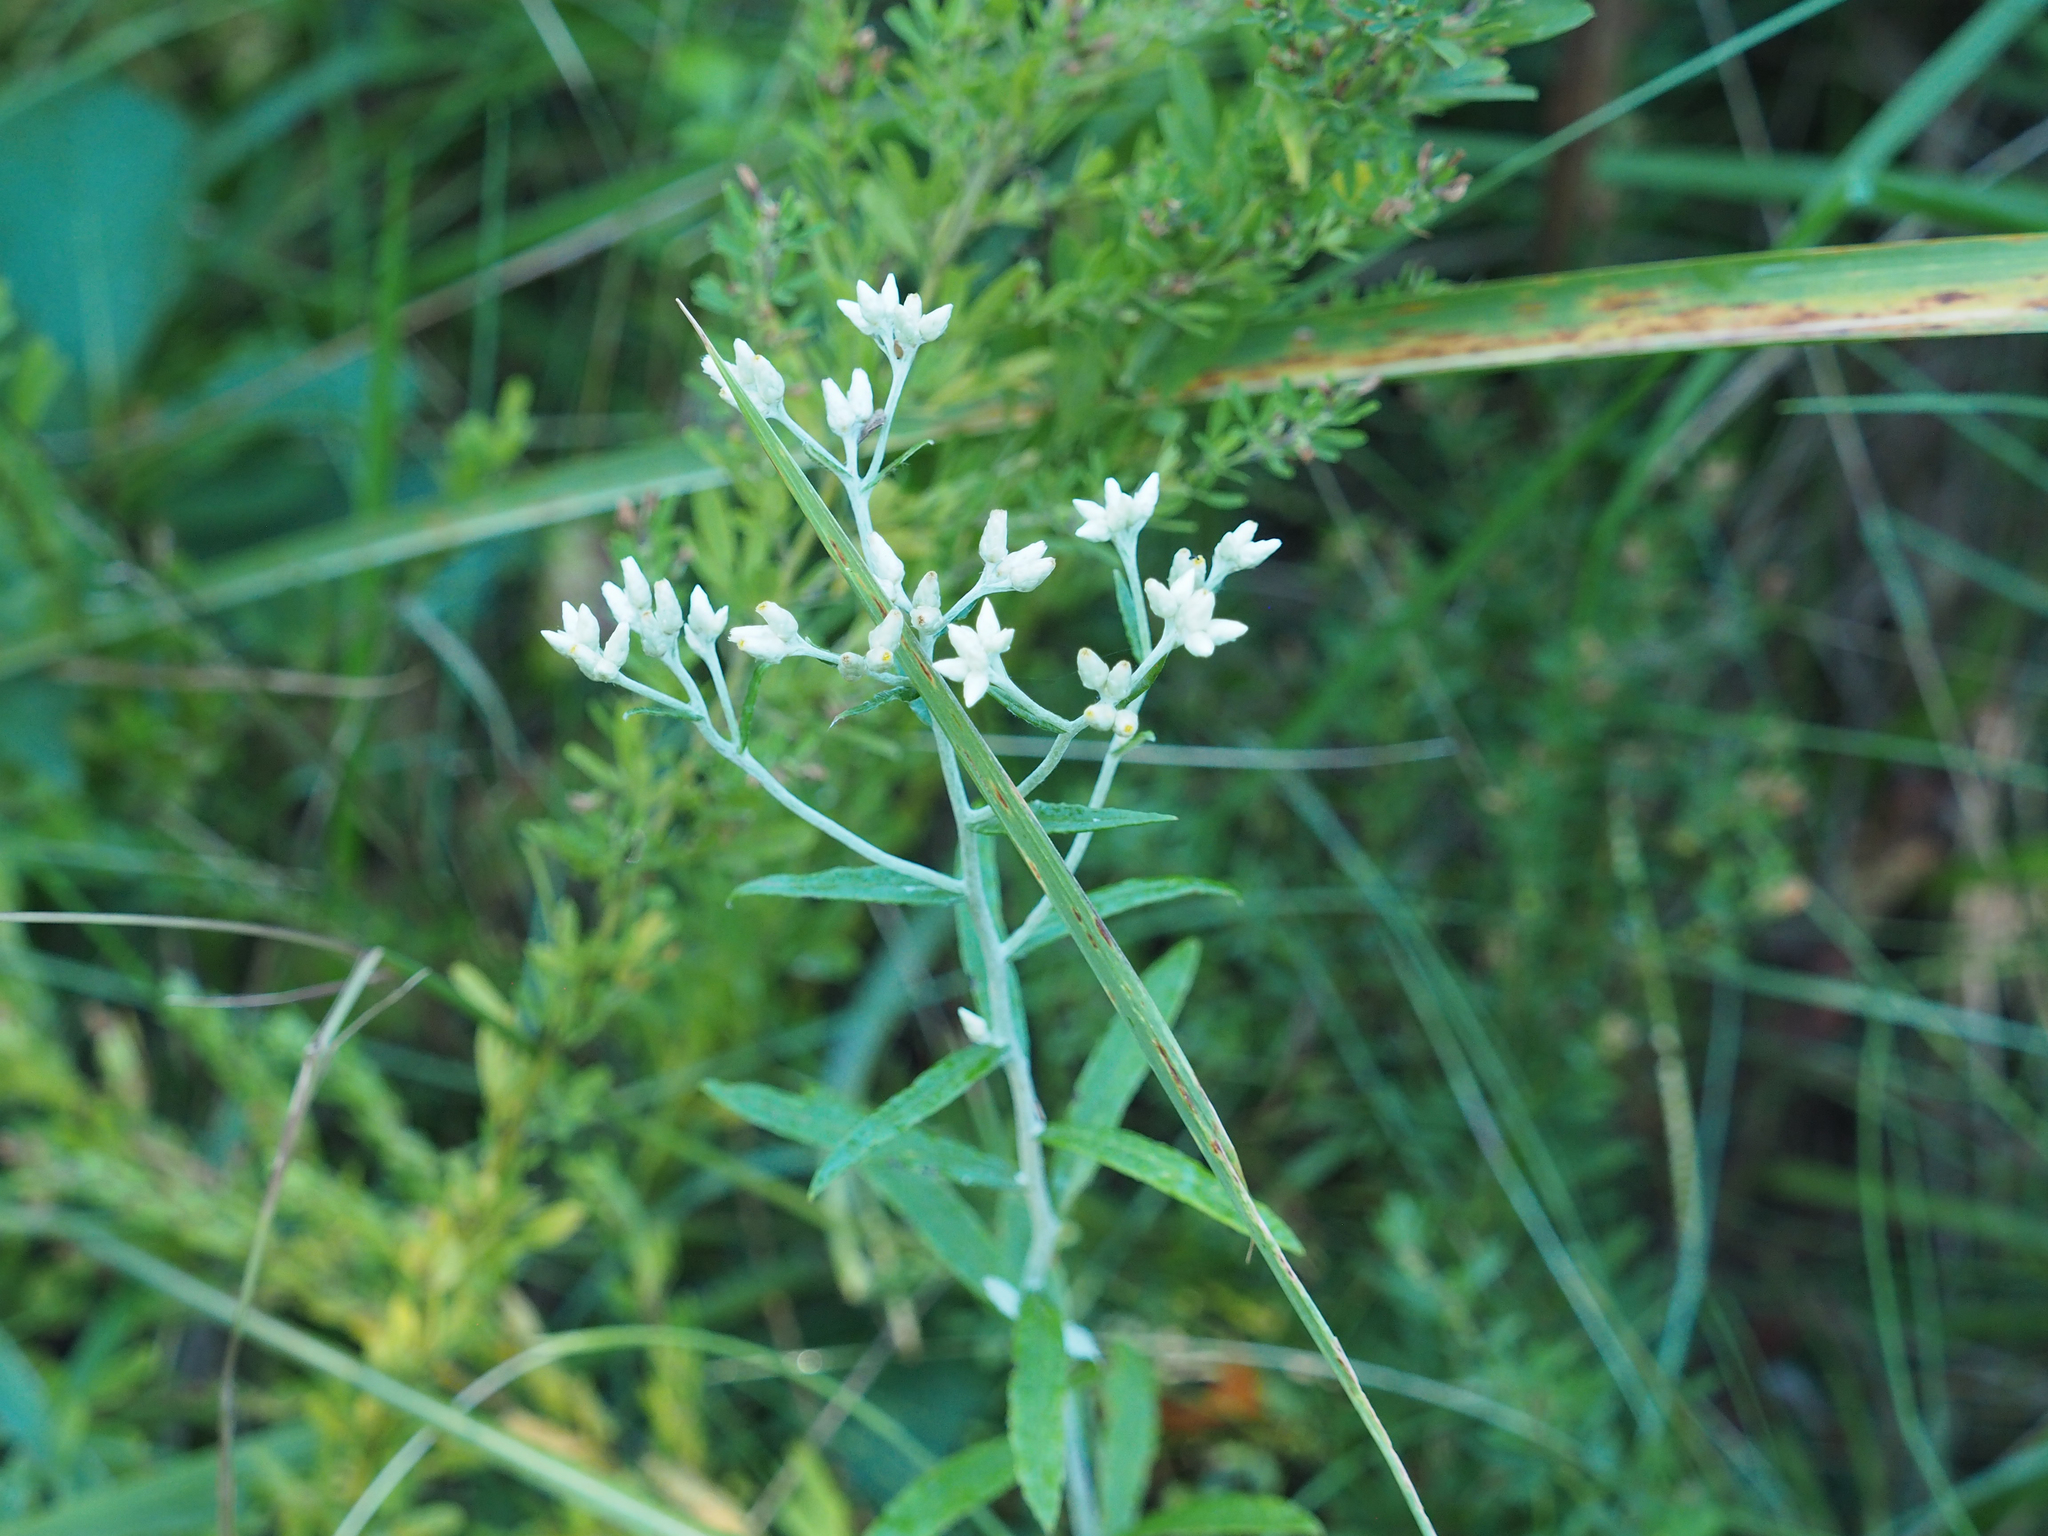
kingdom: Plantae
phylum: Tracheophyta
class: Magnoliopsida
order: Asterales
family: Asteraceae
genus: Pseudognaphalium
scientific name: Pseudognaphalium obtusifolium
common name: Eastern rabbit-tobacco
